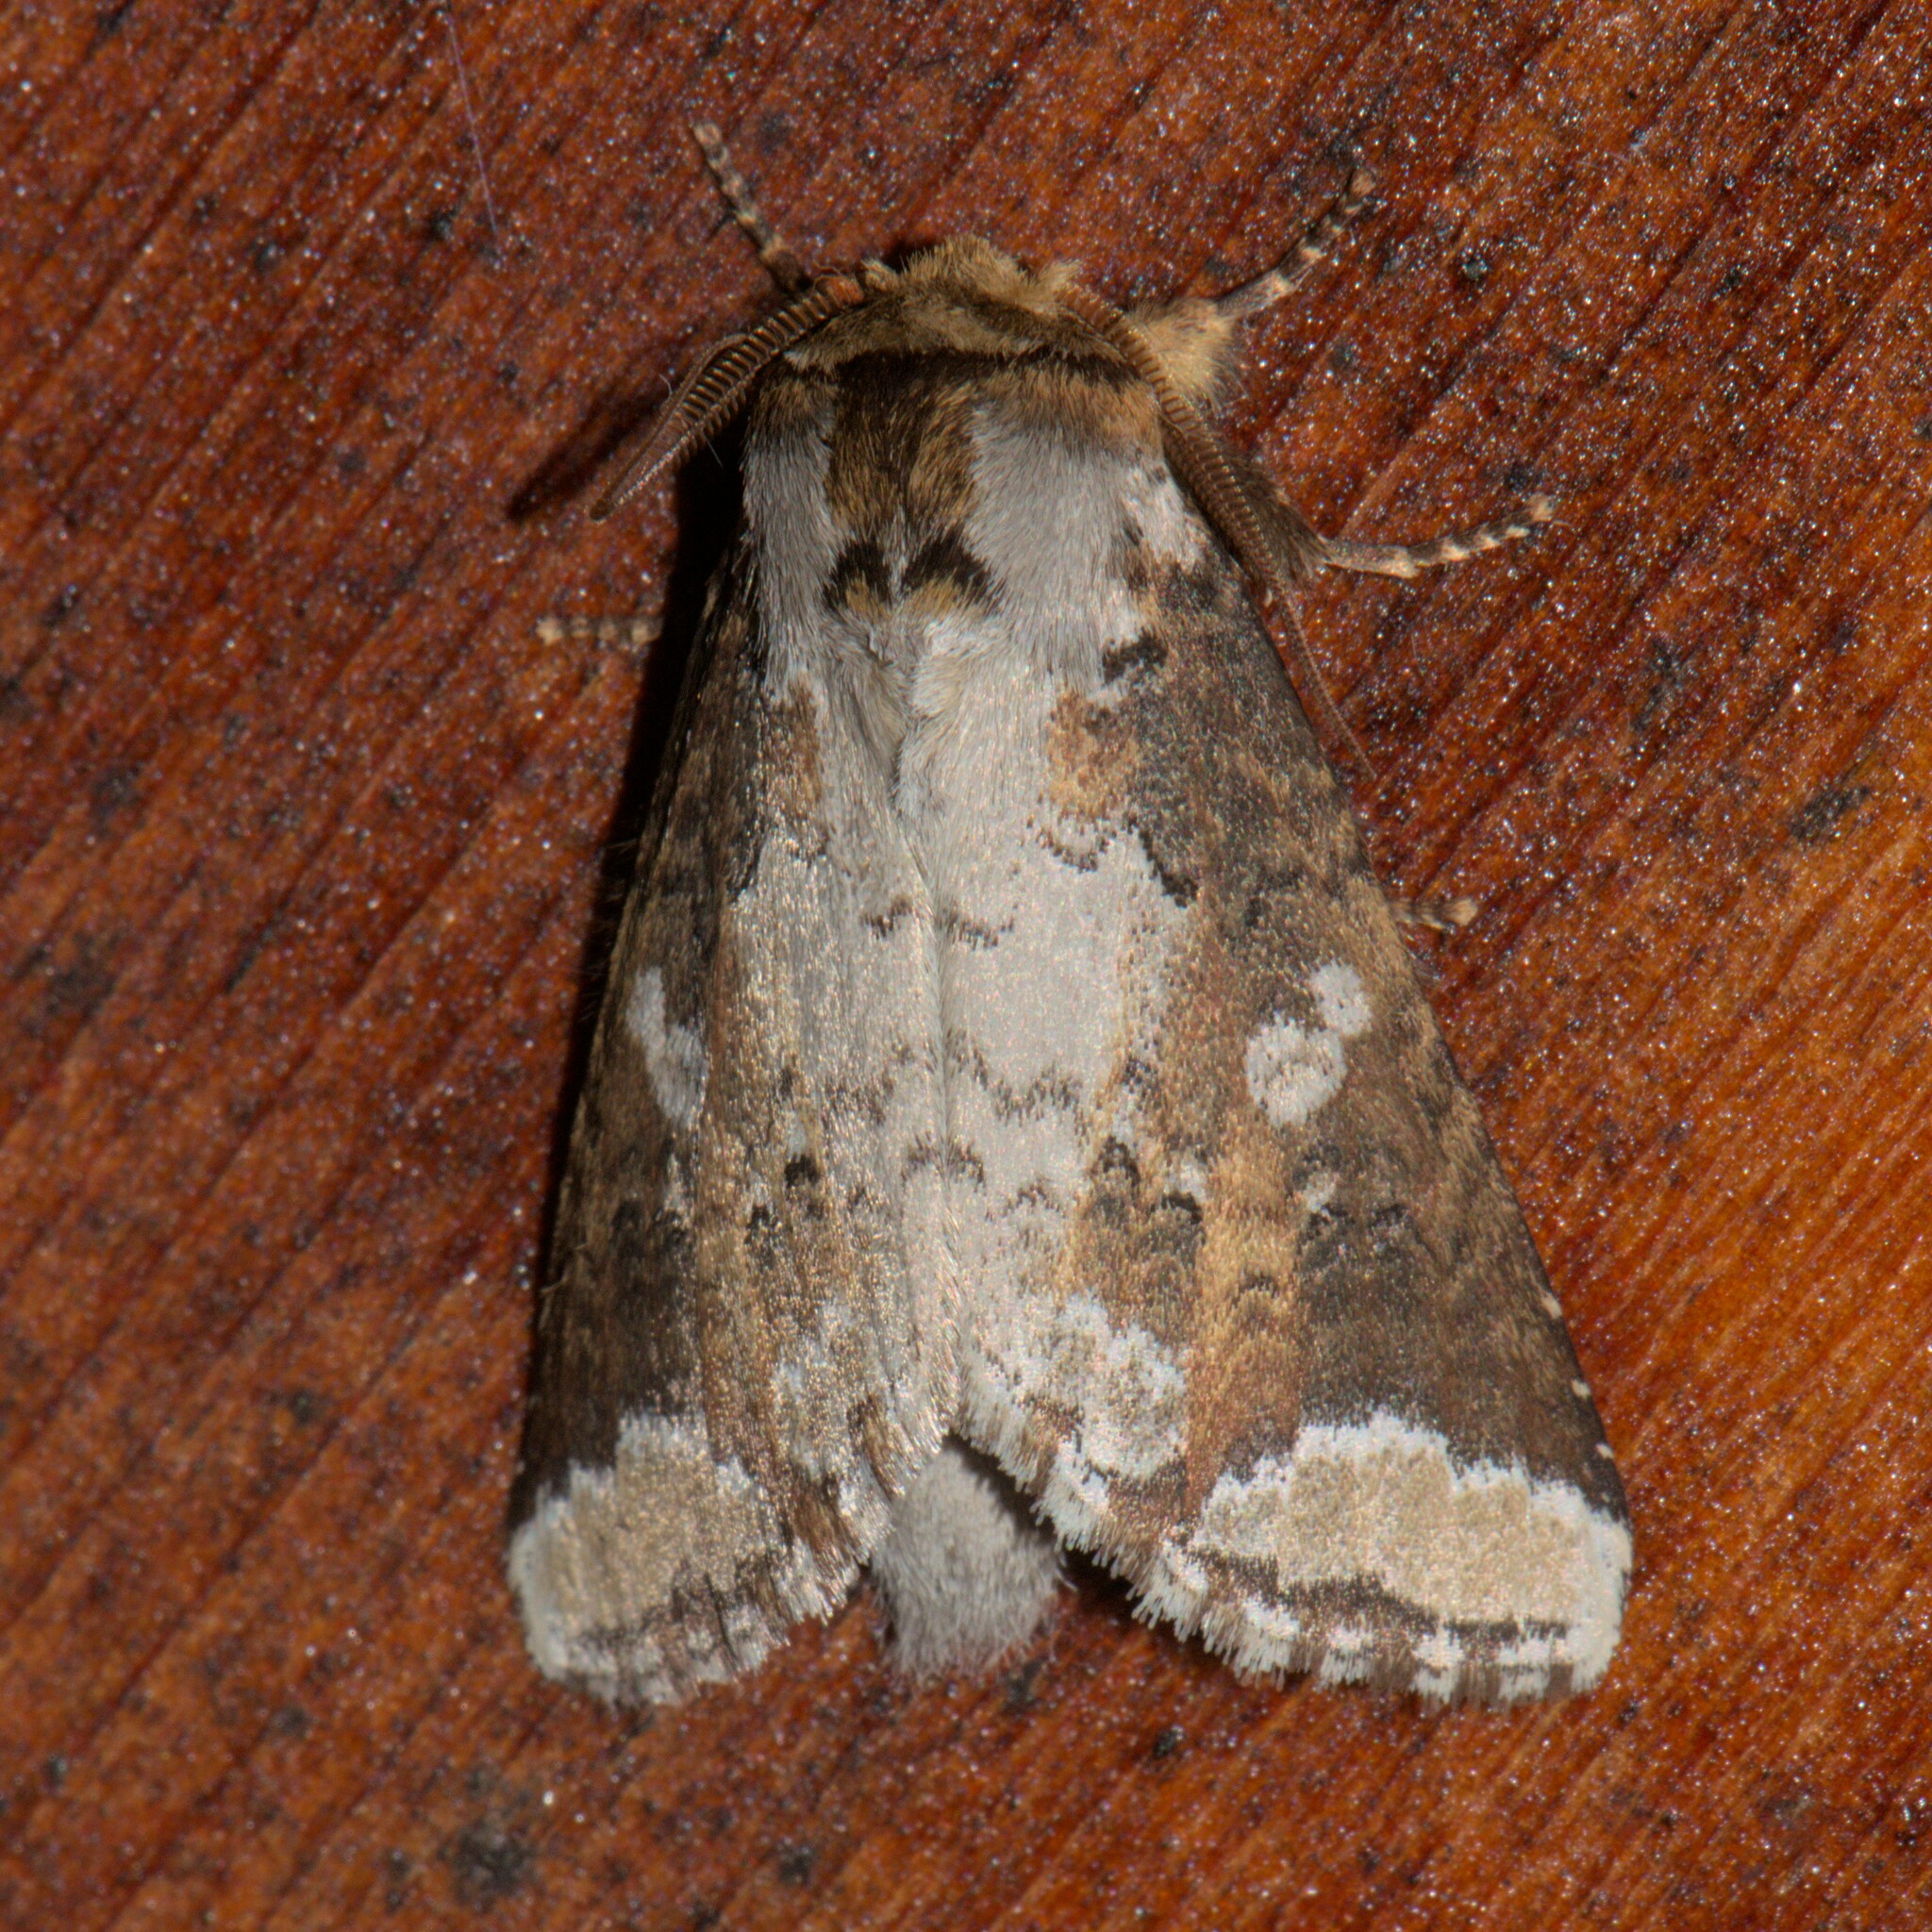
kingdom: Animalia
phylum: Arthropoda
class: Insecta
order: Lepidoptera
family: Notodontidae
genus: Neodrymonia
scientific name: Neodrymonia canifusa
